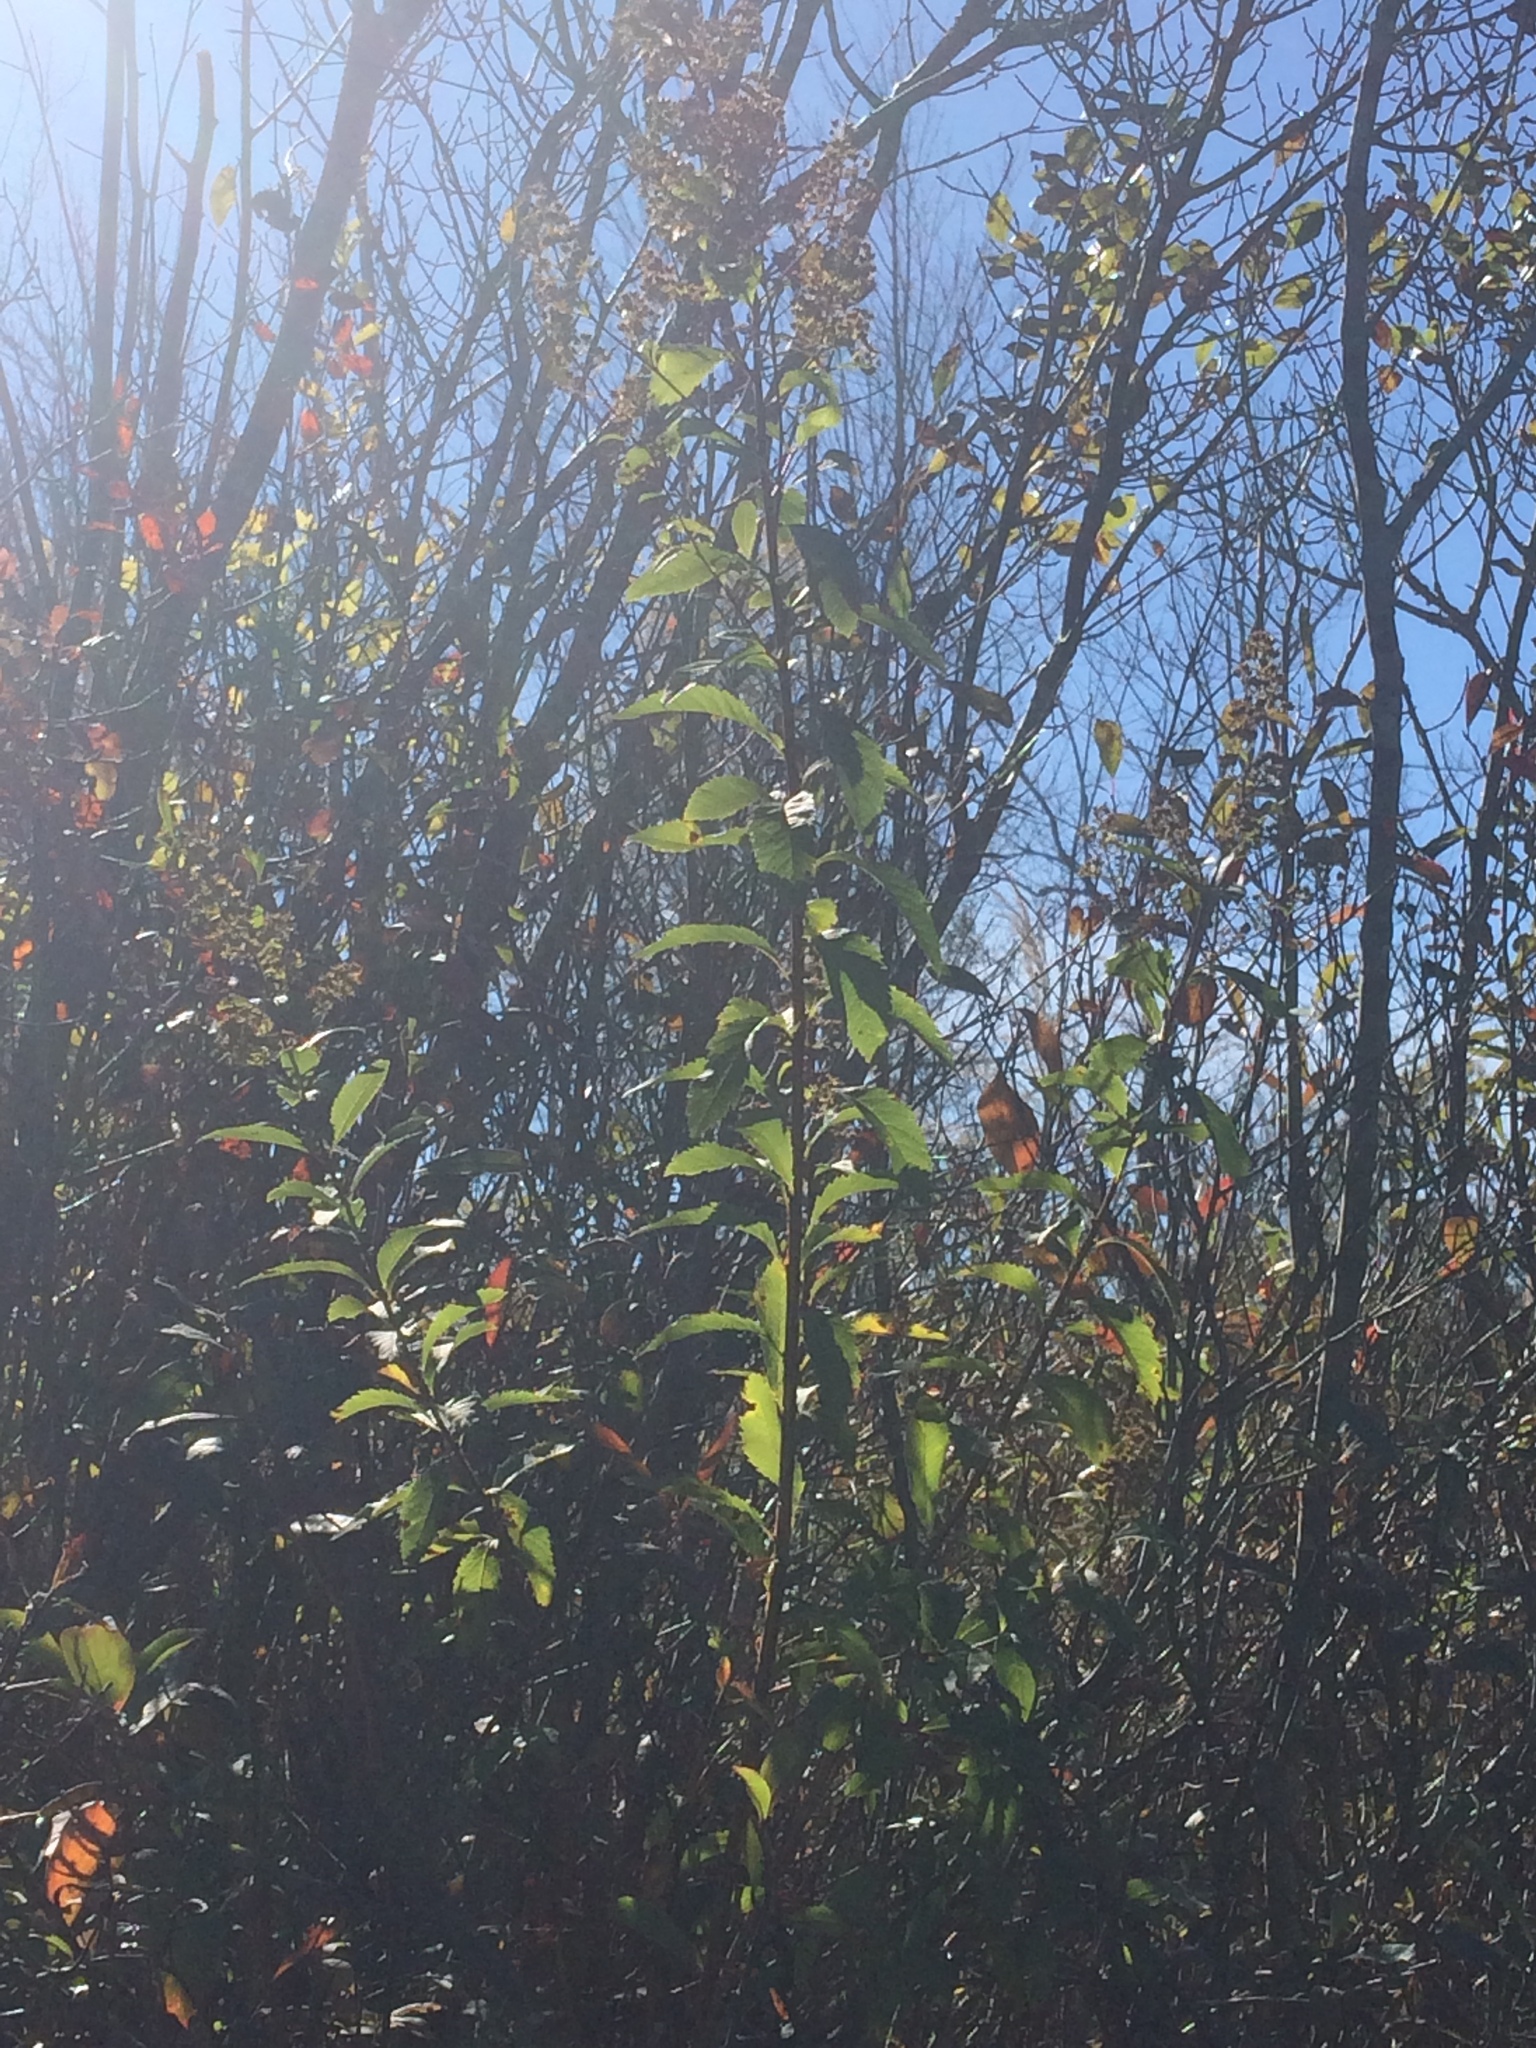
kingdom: Plantae
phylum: Tracheophyta
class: Magnoliopsida
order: Rosales
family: Rosaceae
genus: Spiraea
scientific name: Spiraea alba
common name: Pale bridewort
